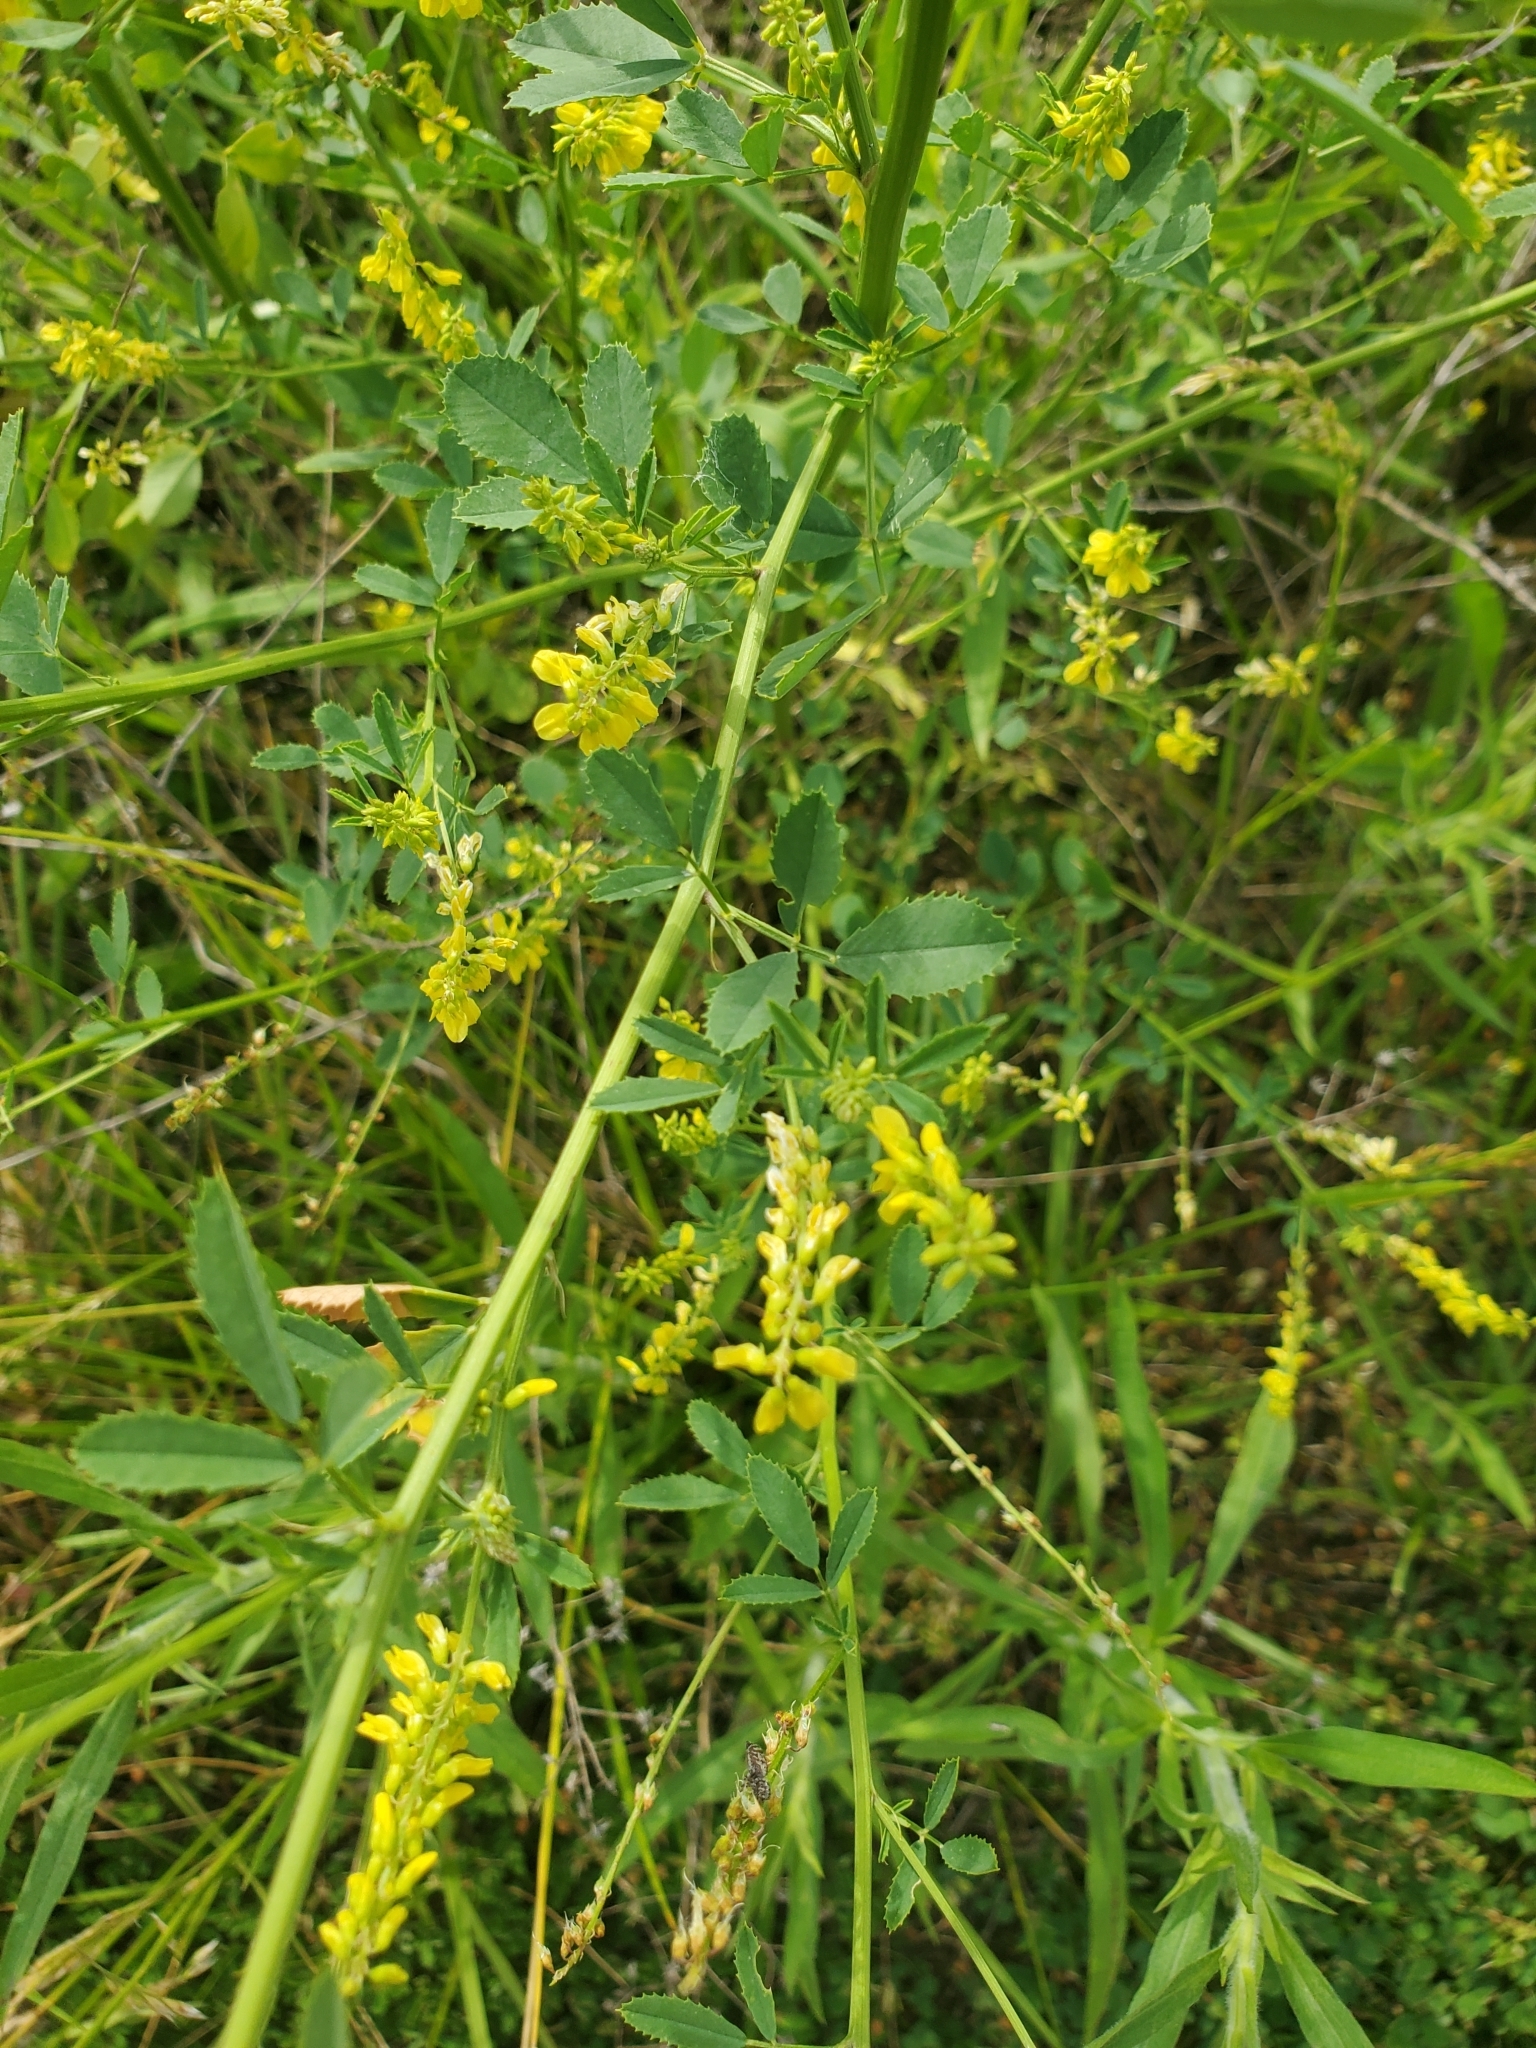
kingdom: Plantae
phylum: Tracheophyta
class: Magnoliopsida
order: Fabales
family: Fabaceae
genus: Melilotus
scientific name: Melilotus officinalis
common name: Sweetclover
